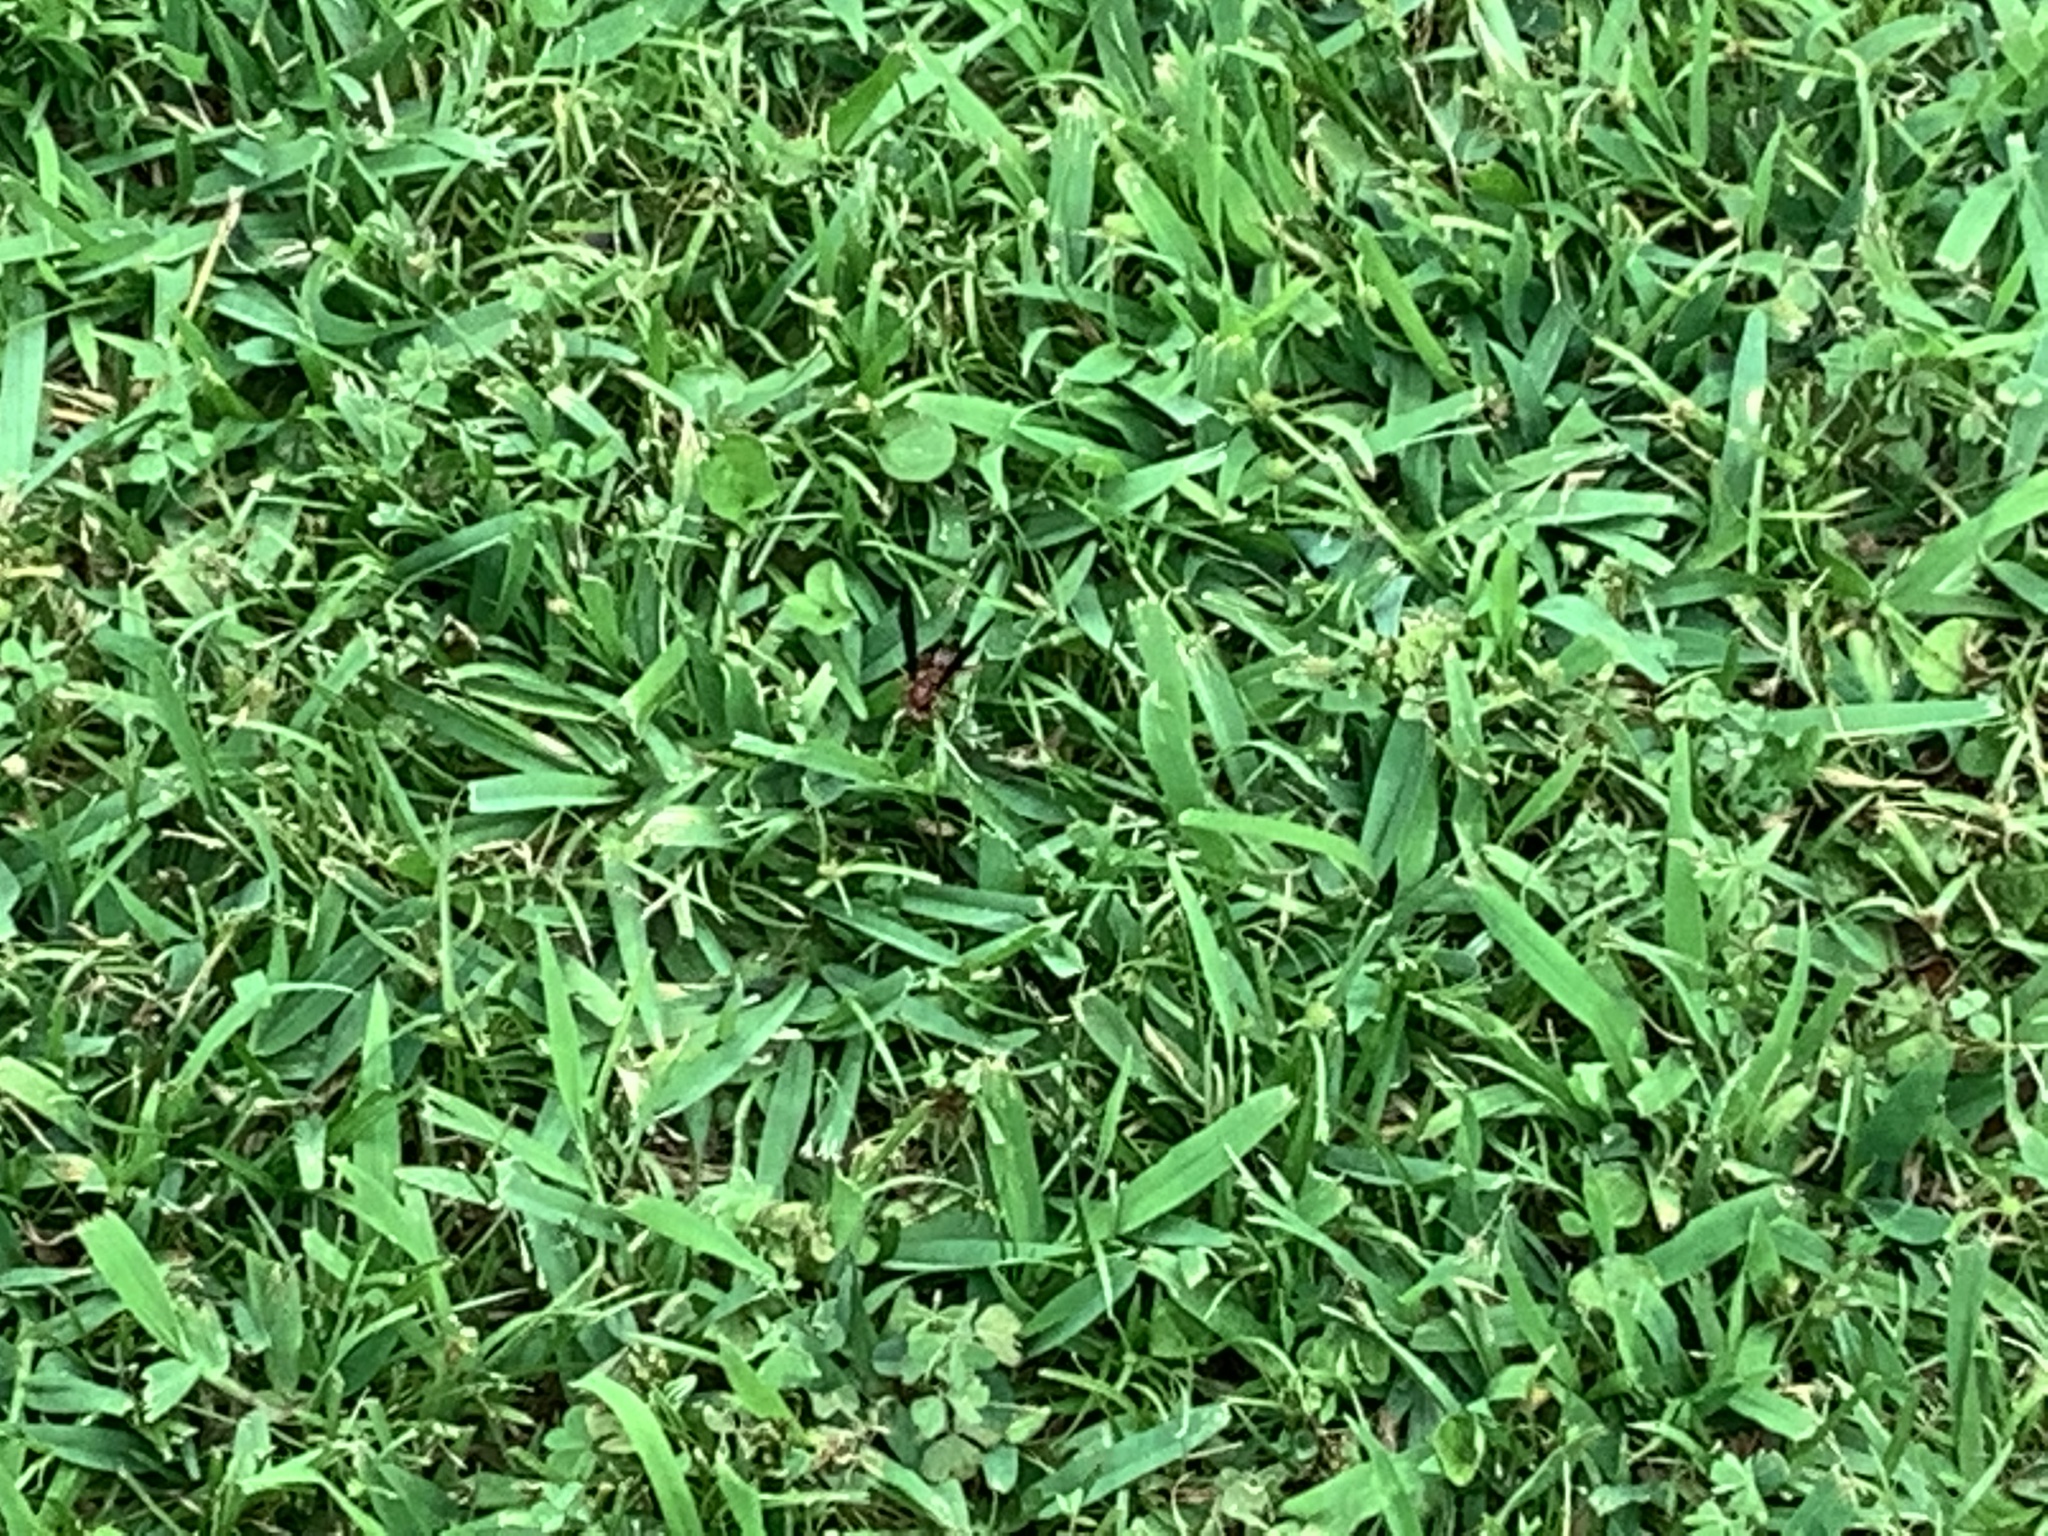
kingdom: Animalia
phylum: Arthropoda
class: Insecta
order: Hymenoptera
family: Eumenidae
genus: Polistes
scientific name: Polistes metricus
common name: Metric paper wasp
